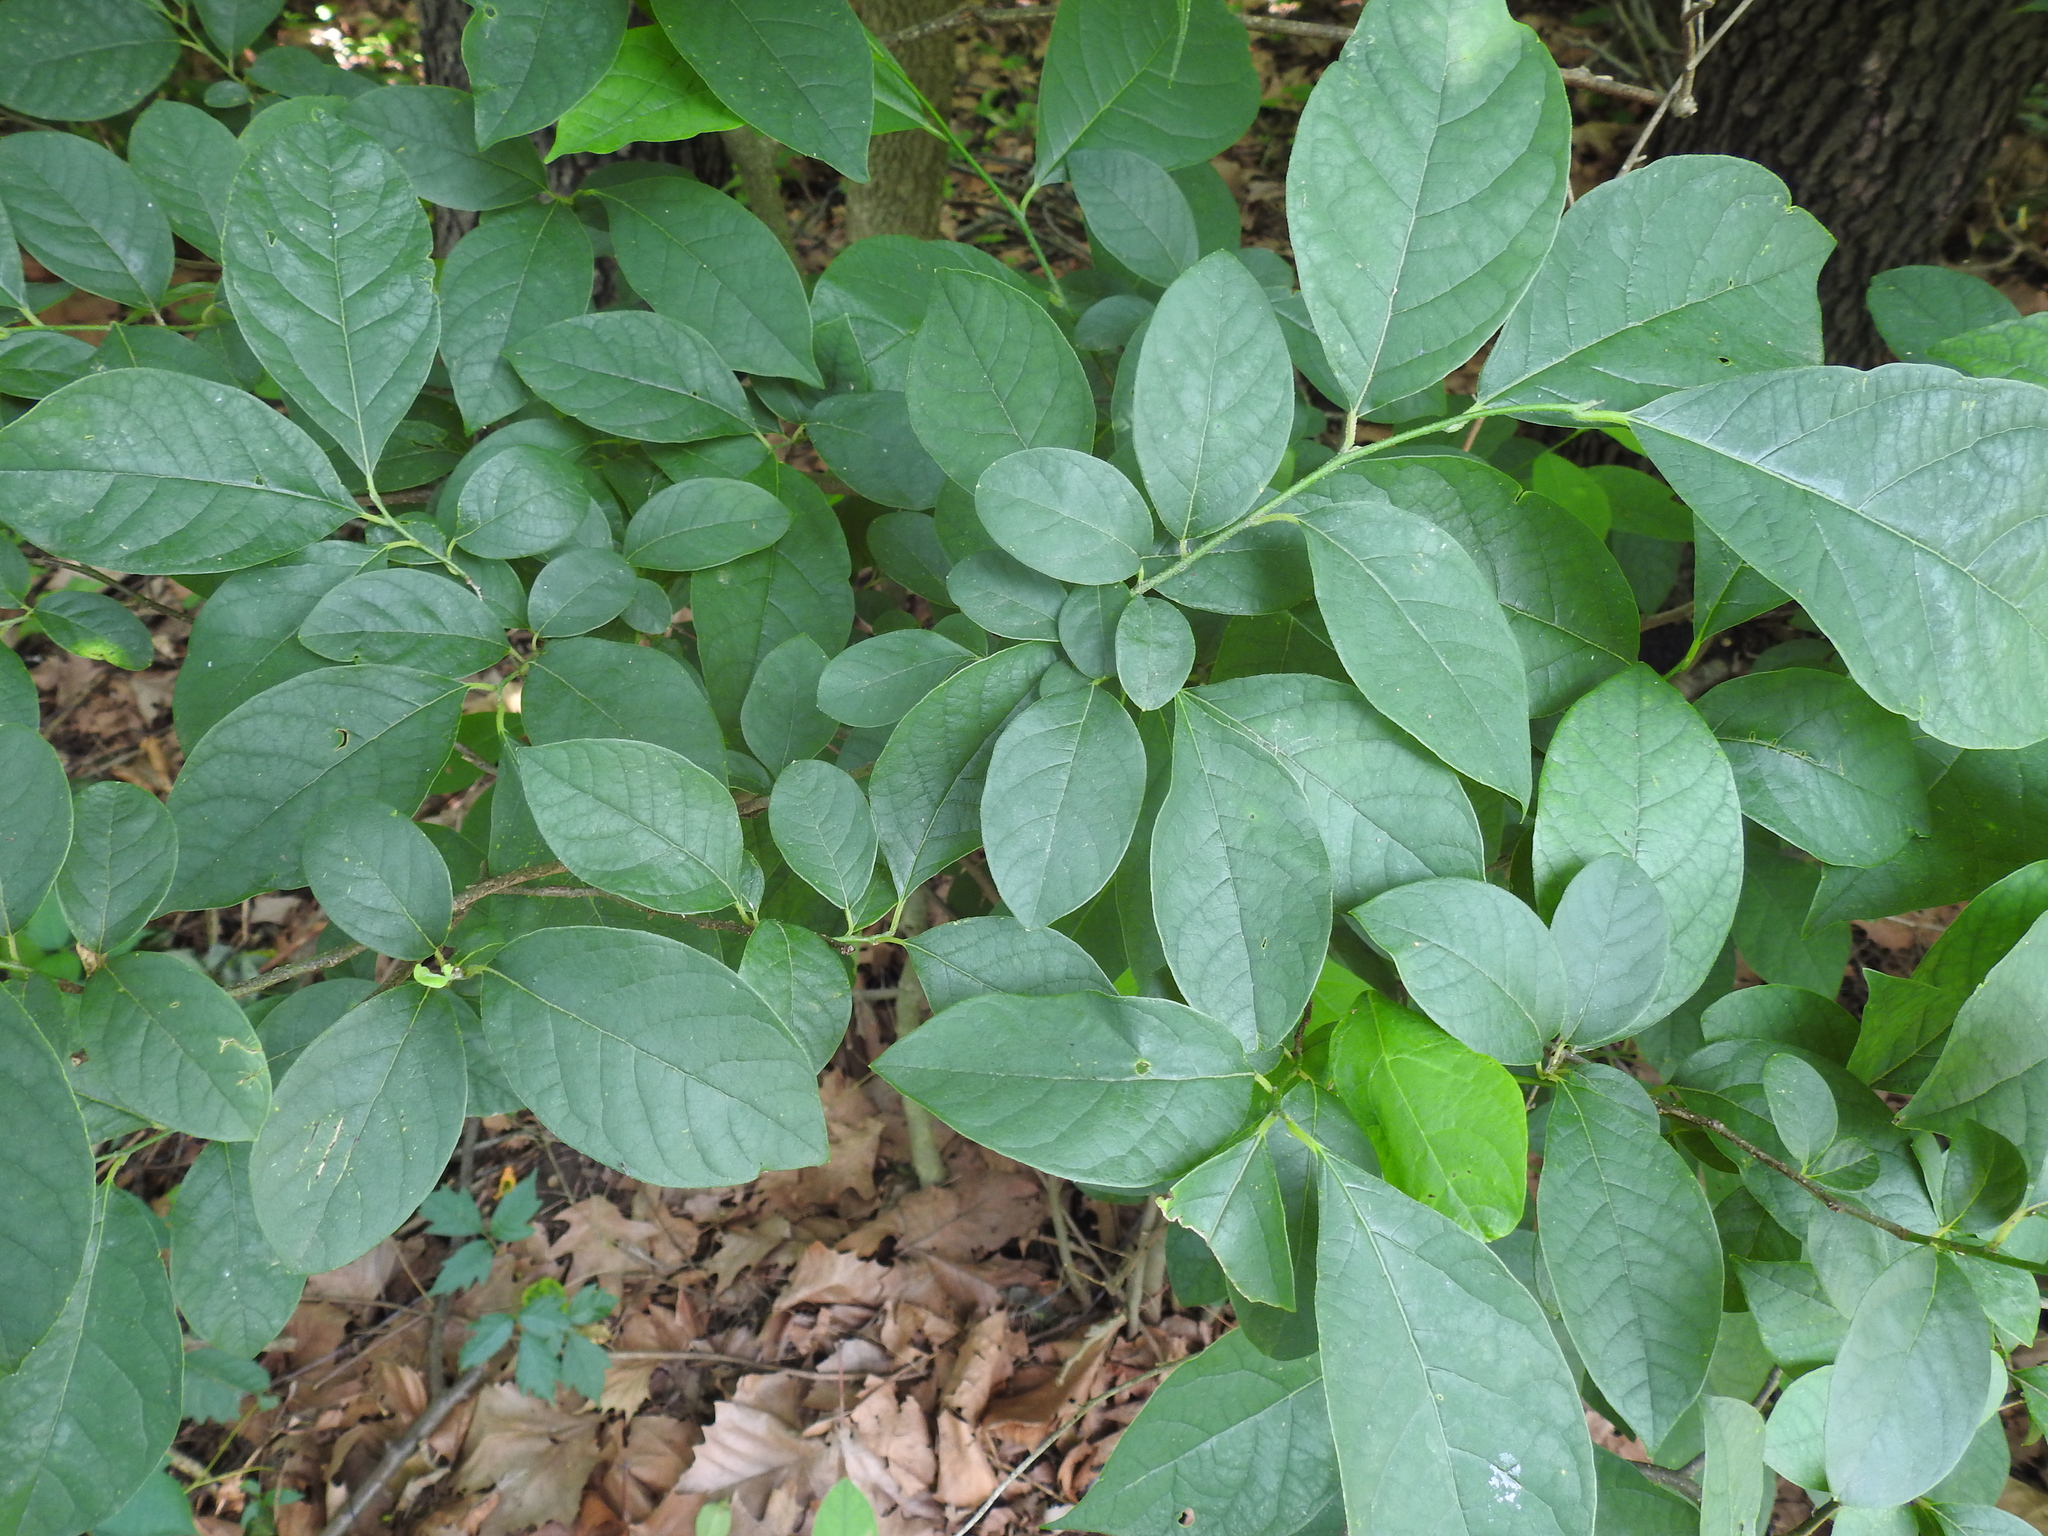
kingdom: Plantae
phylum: Tracheophyta
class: Magnoliopsida
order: Laurales
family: Lauraceae
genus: Lindera
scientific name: Lindera benzoin
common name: Spicebush
